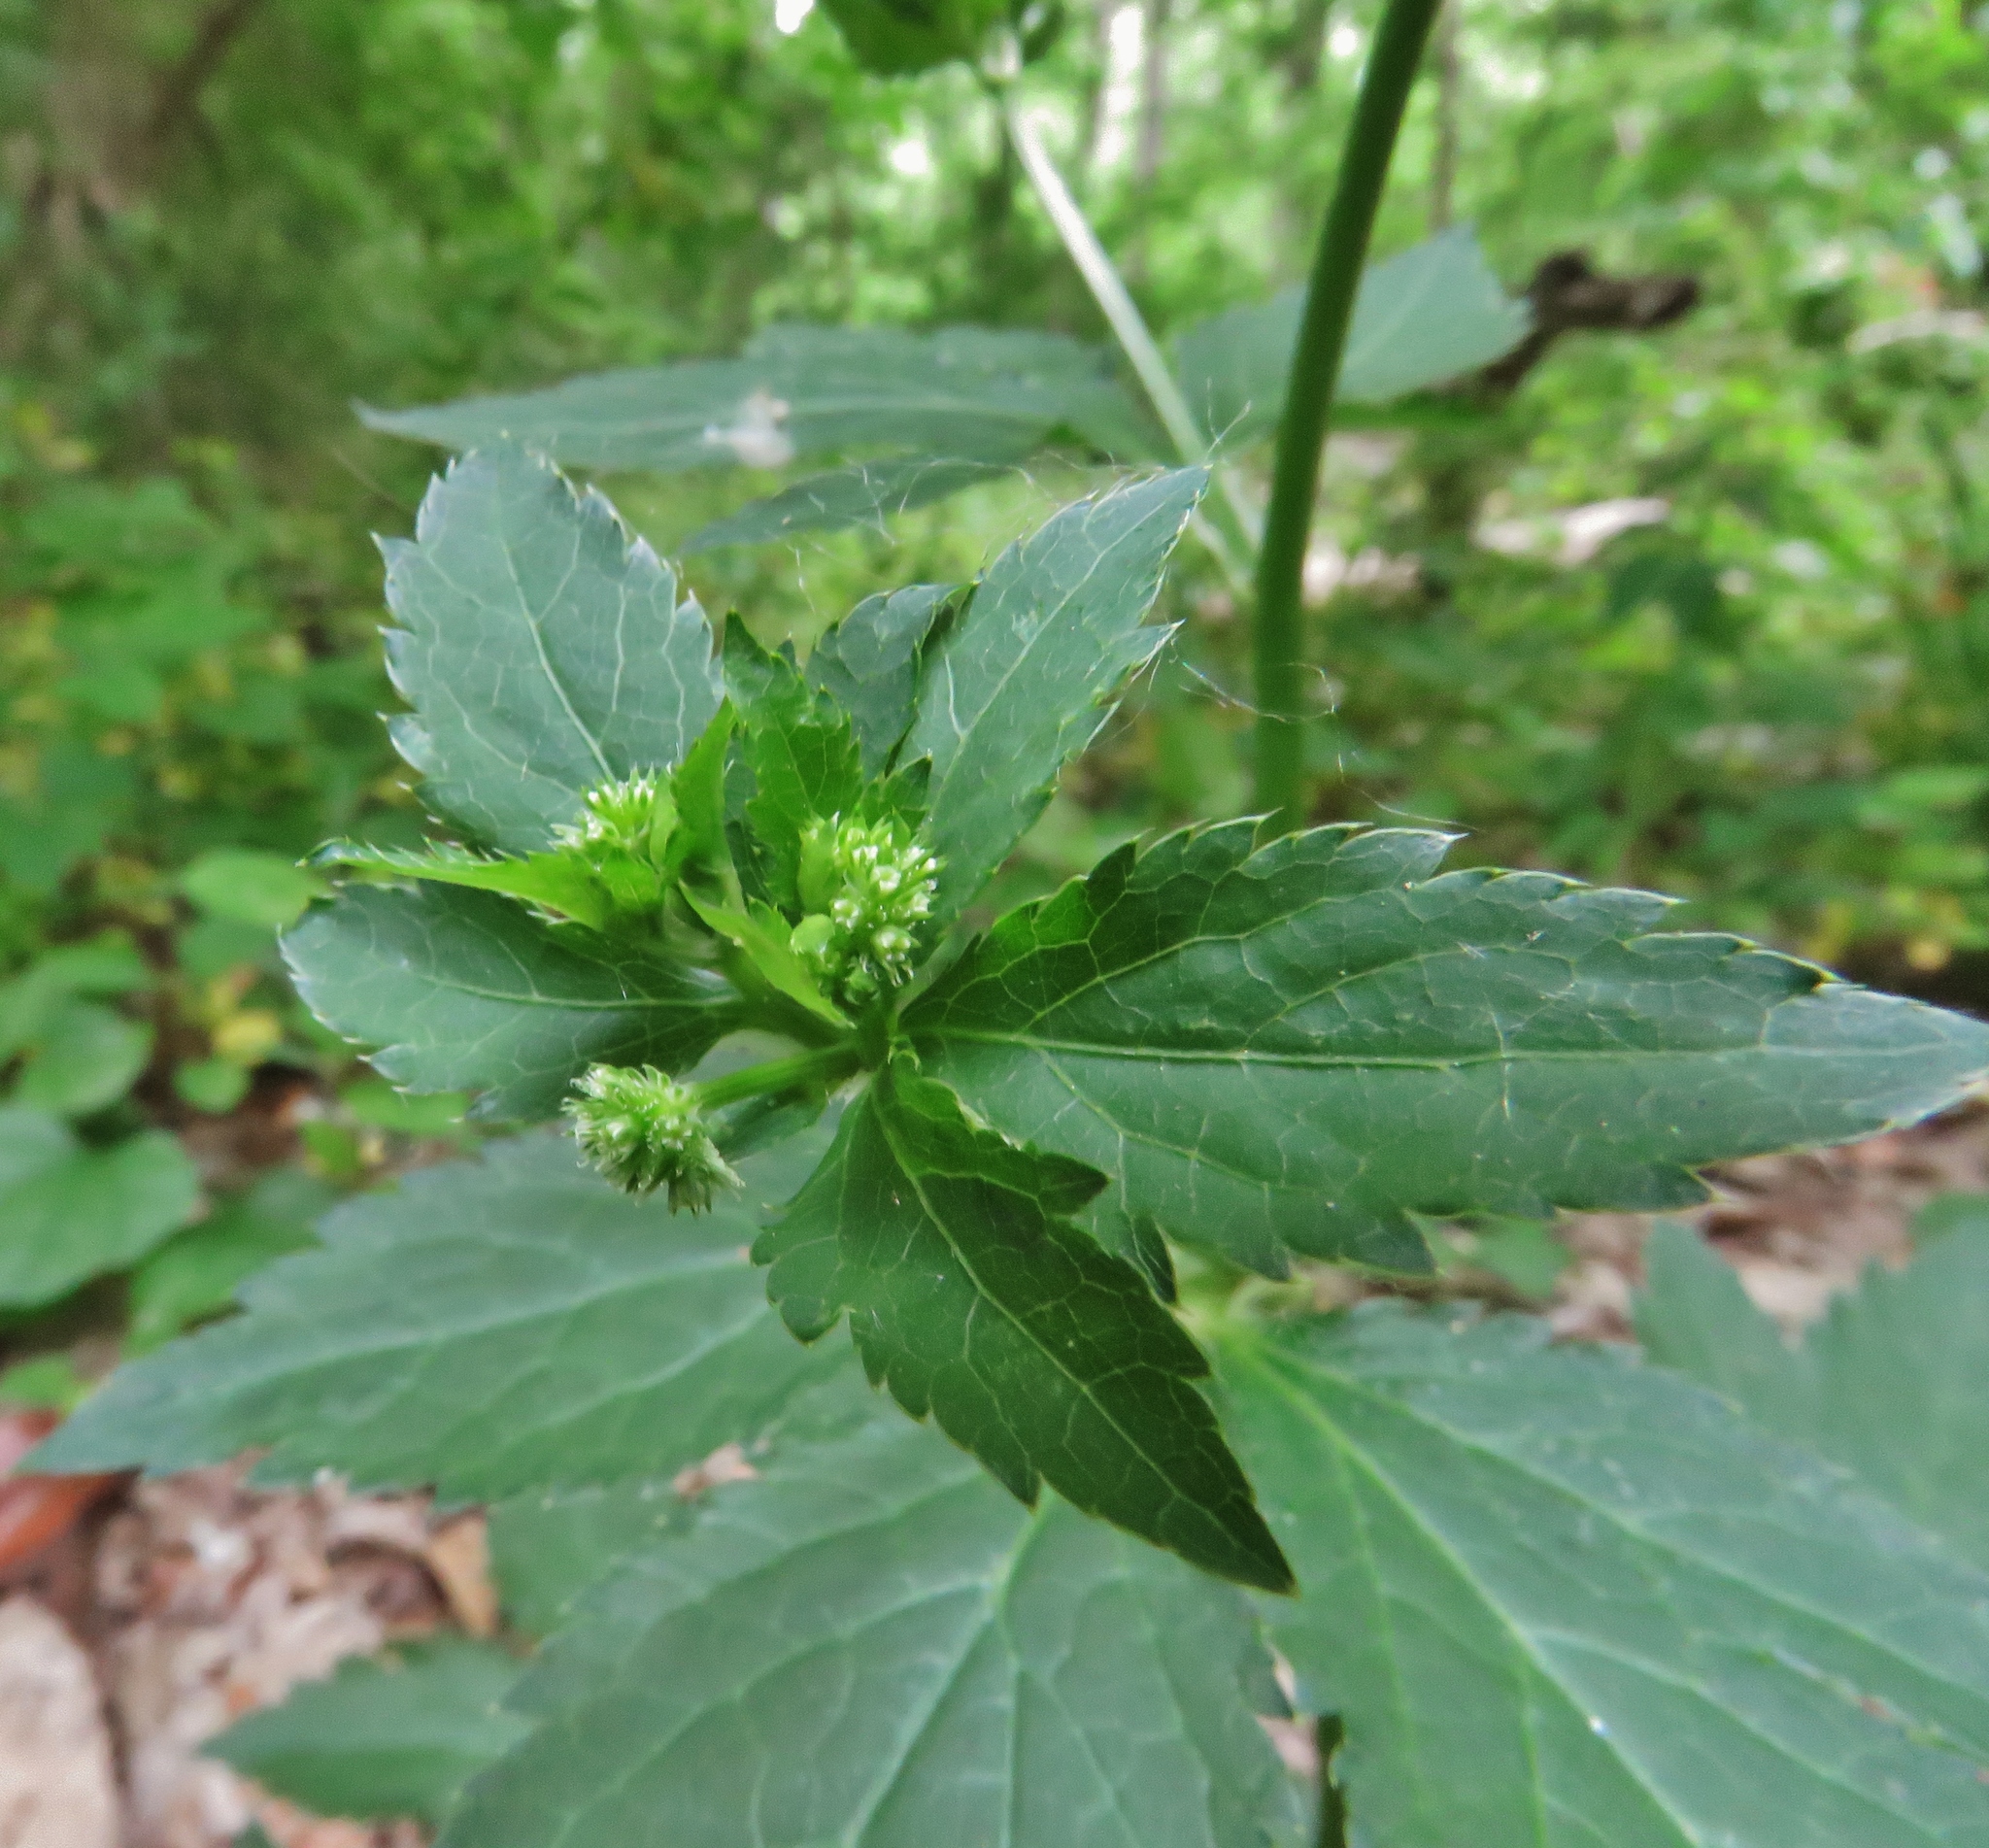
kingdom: Plantae
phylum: Tracheophyta
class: Magnoliopsida
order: Apiales
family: Apiaceae
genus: Sanicula
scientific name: Sanicula canadensis
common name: Canada sanicle
